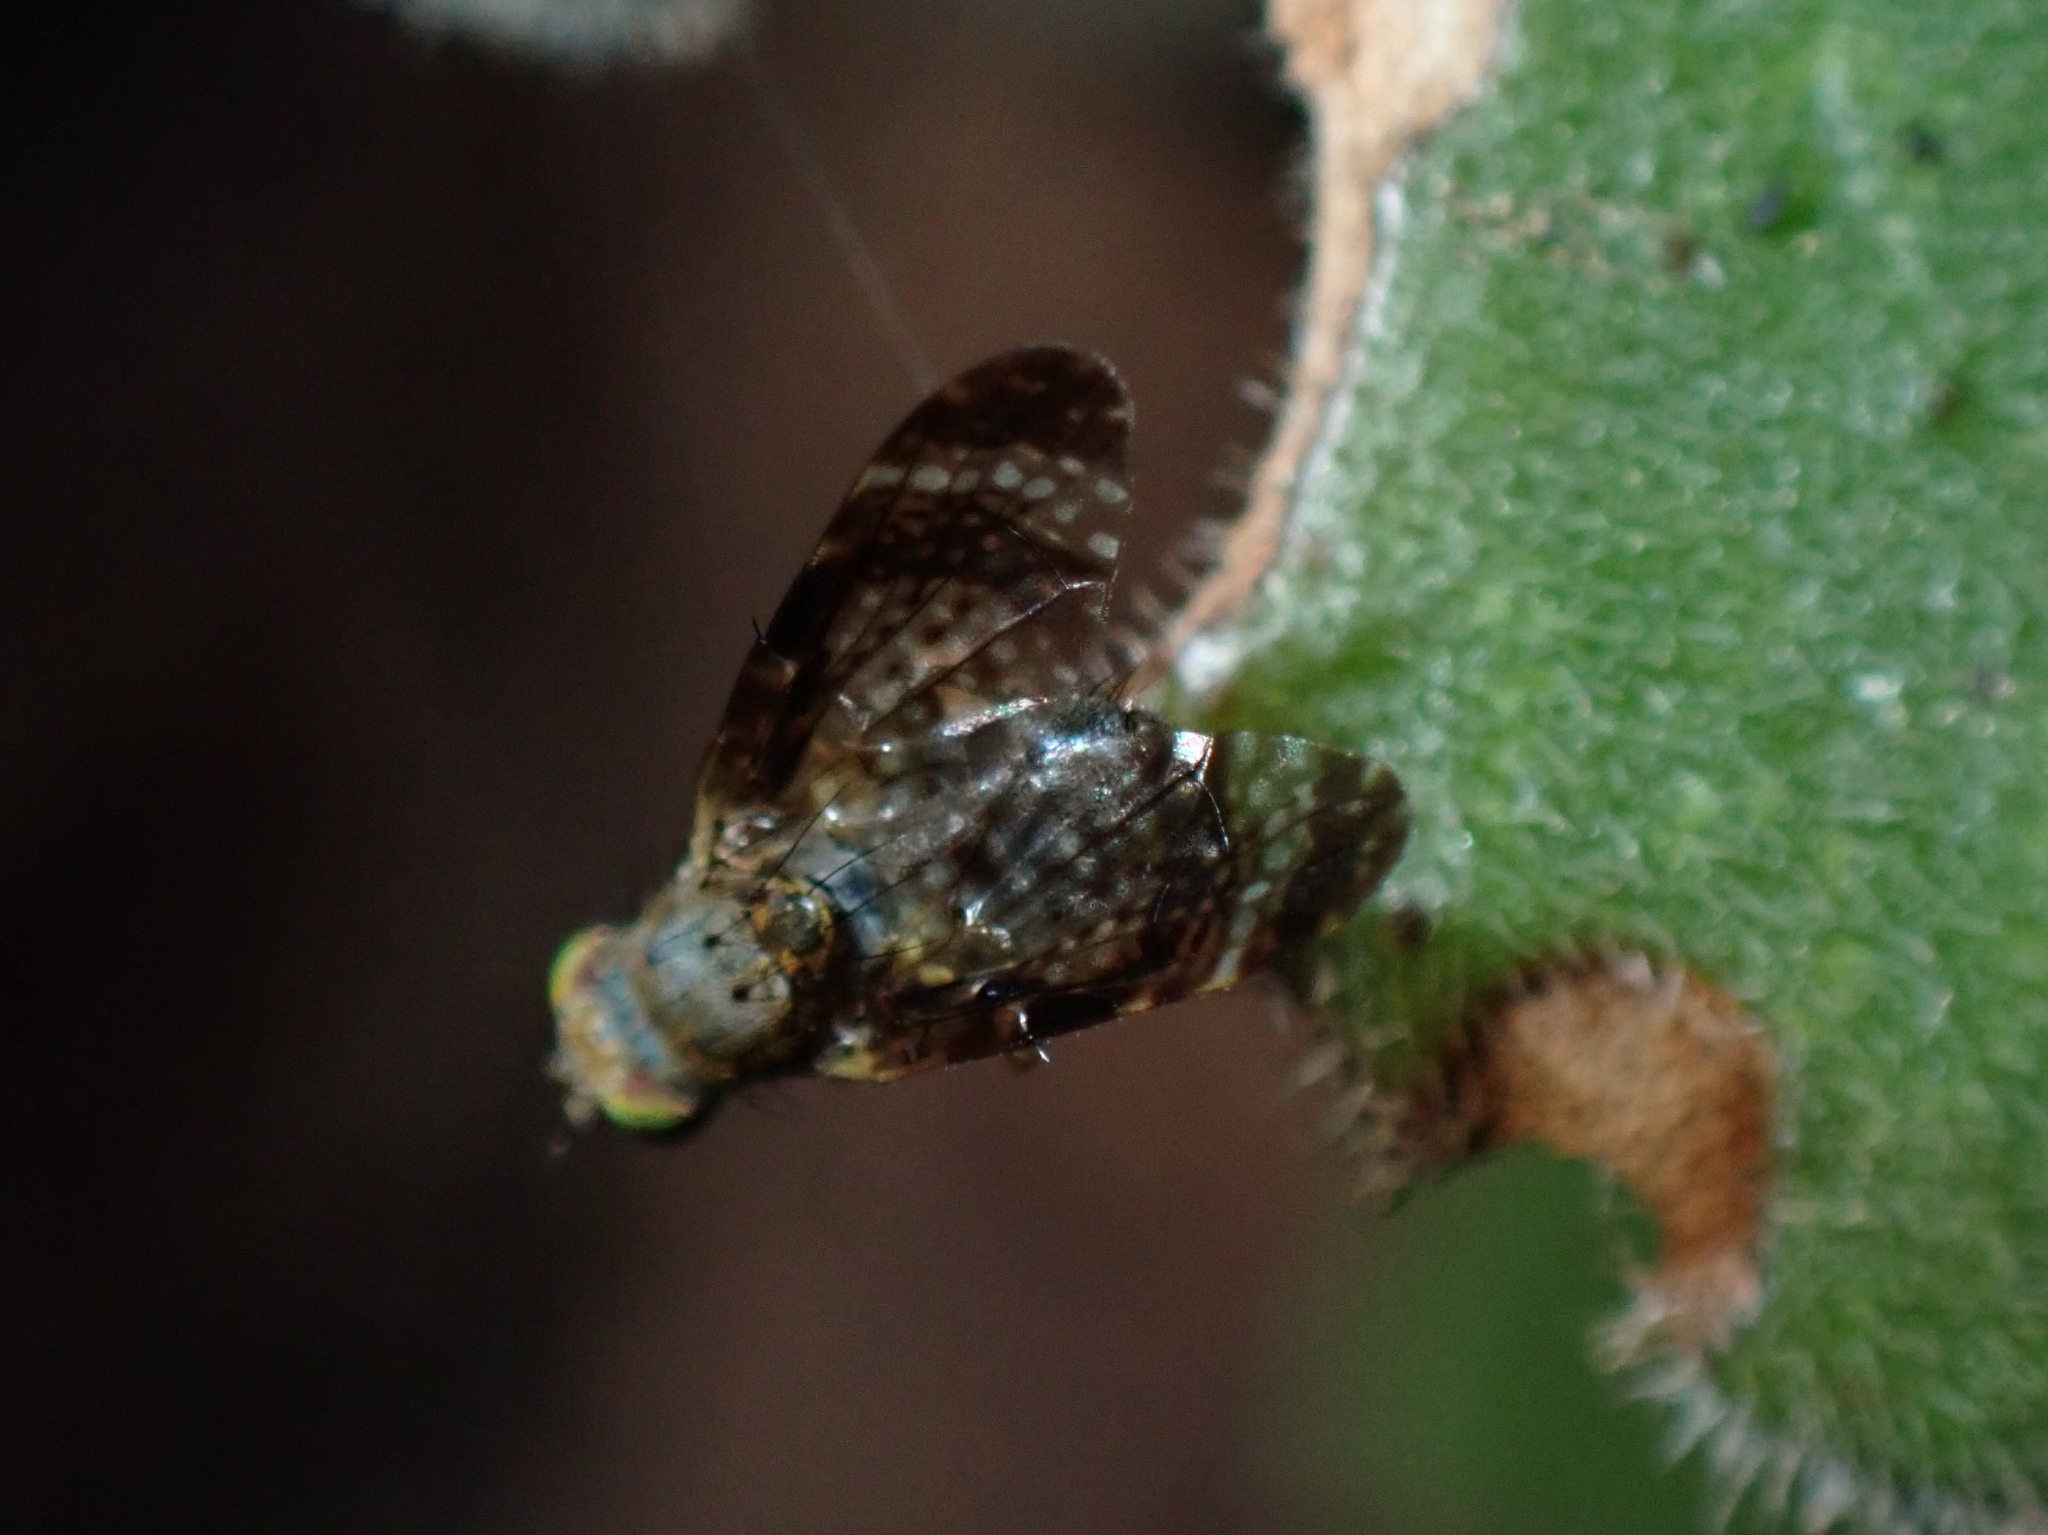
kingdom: Animalia
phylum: Arthropoda
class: Insecta
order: Diptera
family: Tephritidae
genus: Orotava
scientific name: Orotava cribrata
